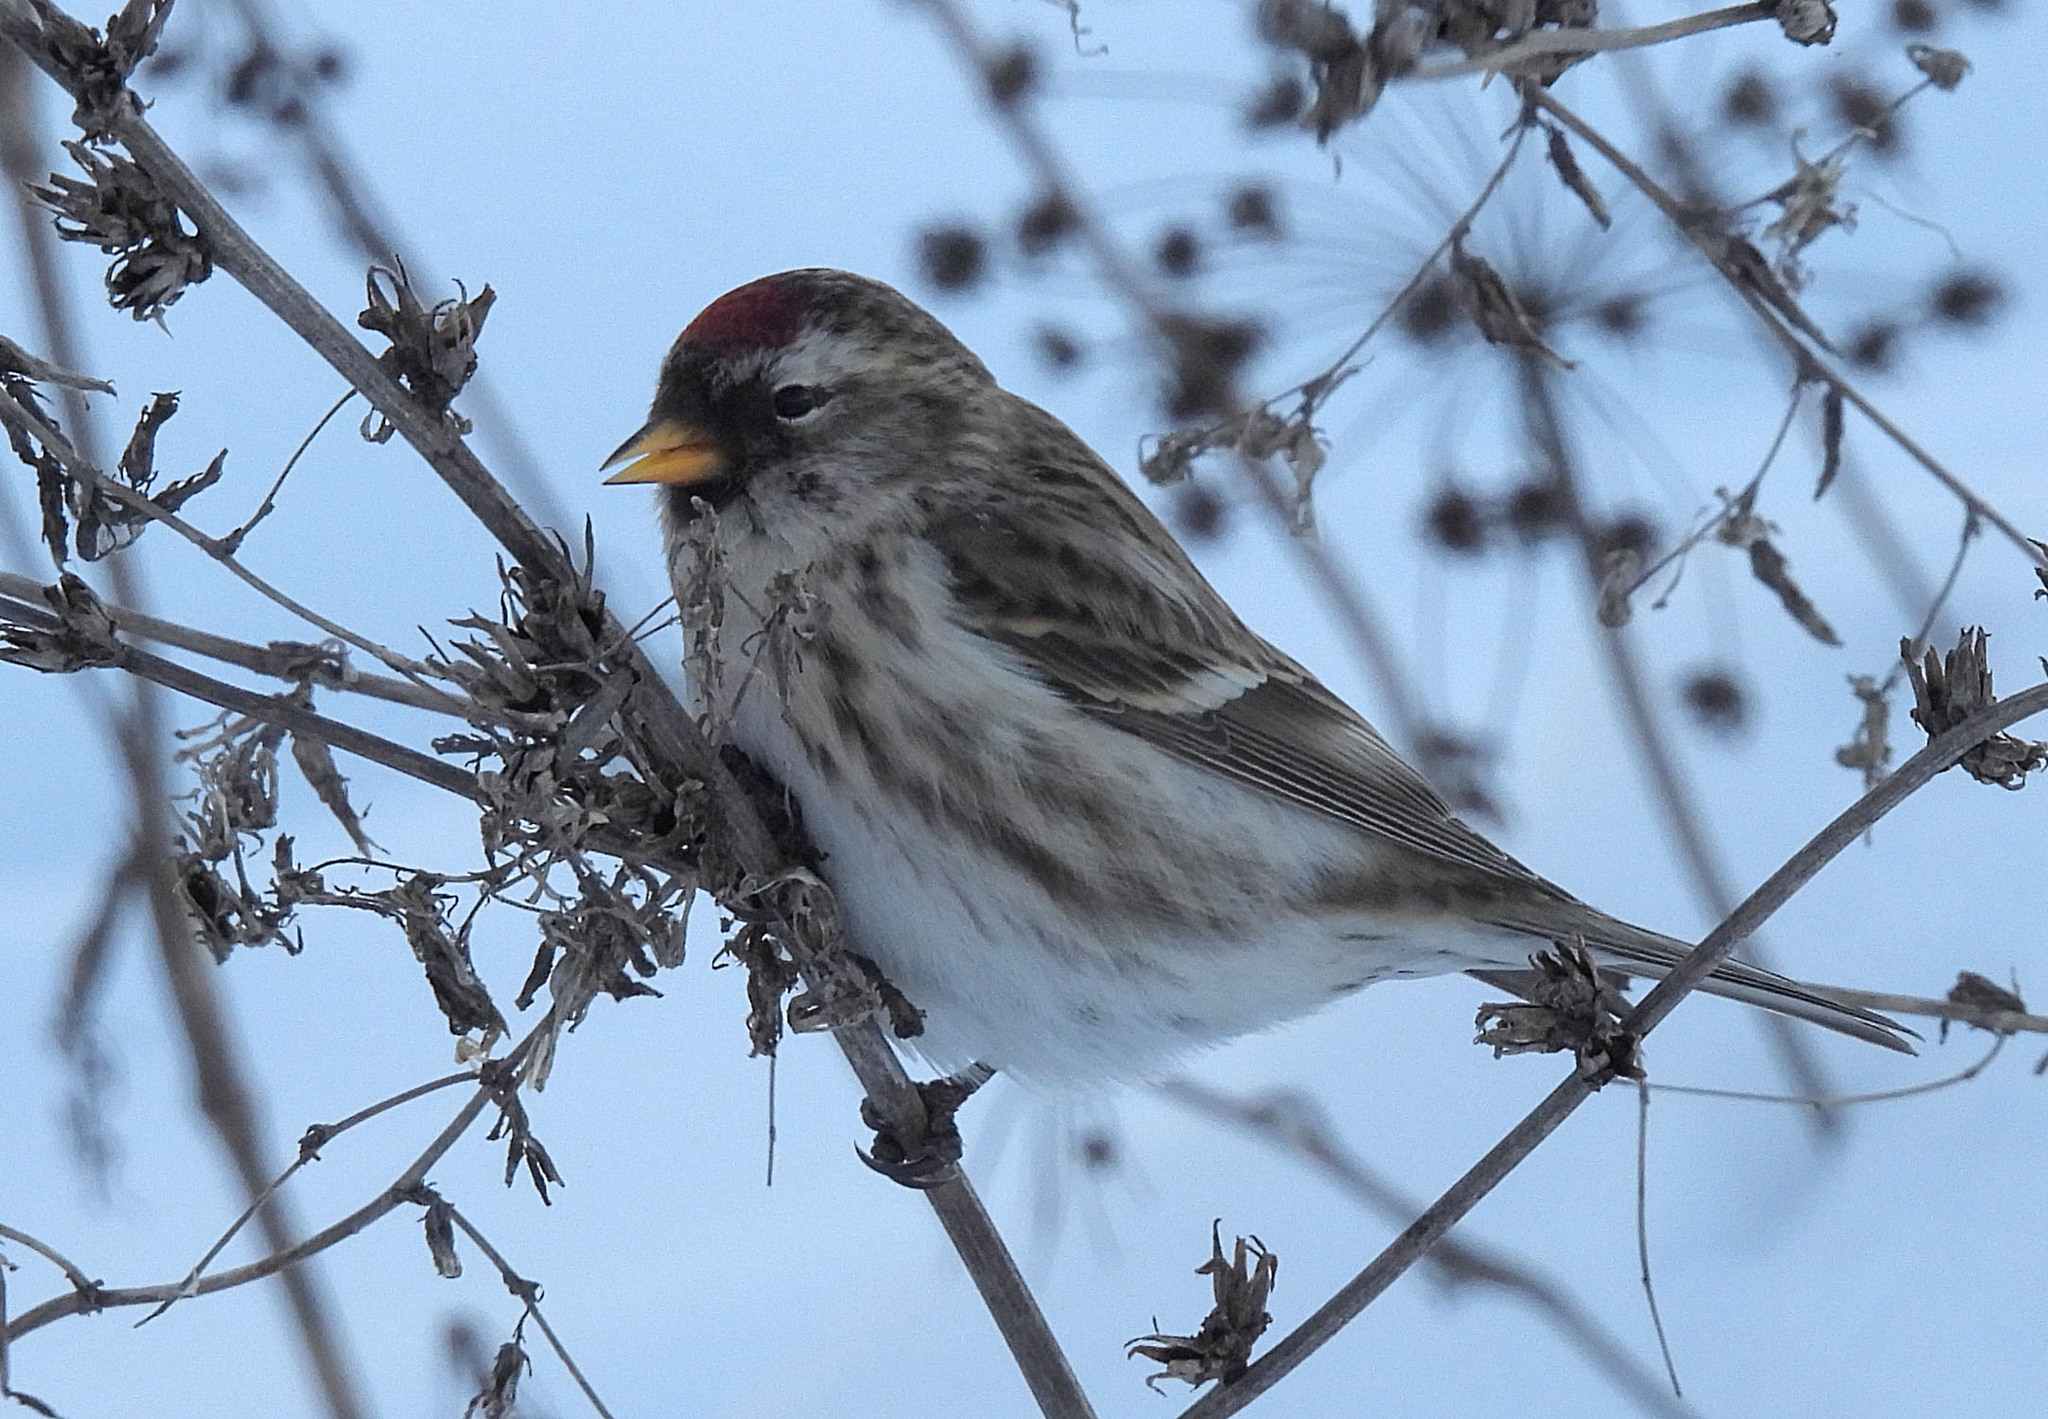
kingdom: Animalia
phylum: Chordata
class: Aves
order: Passeriformes
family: Fringillidae
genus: Acanthis
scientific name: Acanthis flammea
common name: Common redpoll
